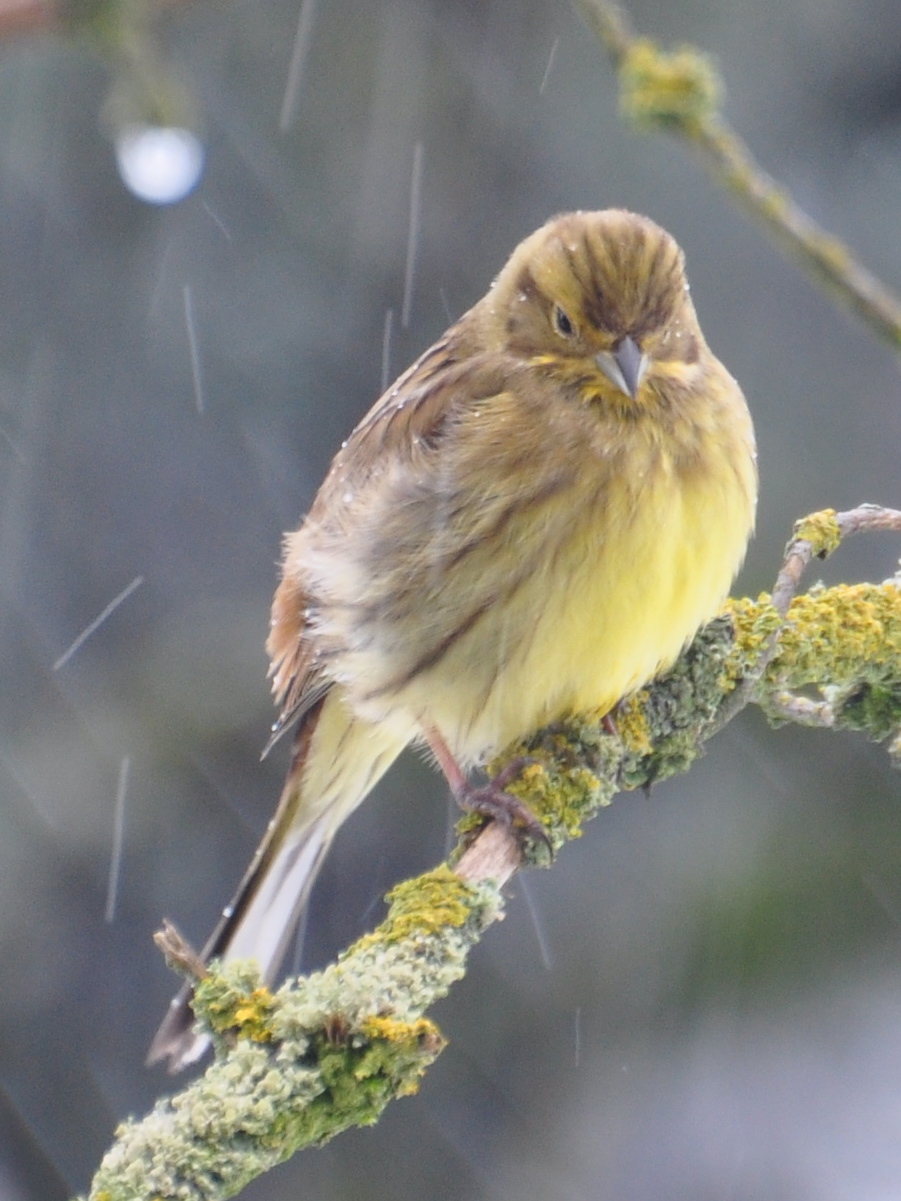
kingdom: Animalia
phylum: Chordata
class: Aves
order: Passeriformes
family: Emberizidae
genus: Emberiza
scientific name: Emberiza citrinella
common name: Yellowhammer
